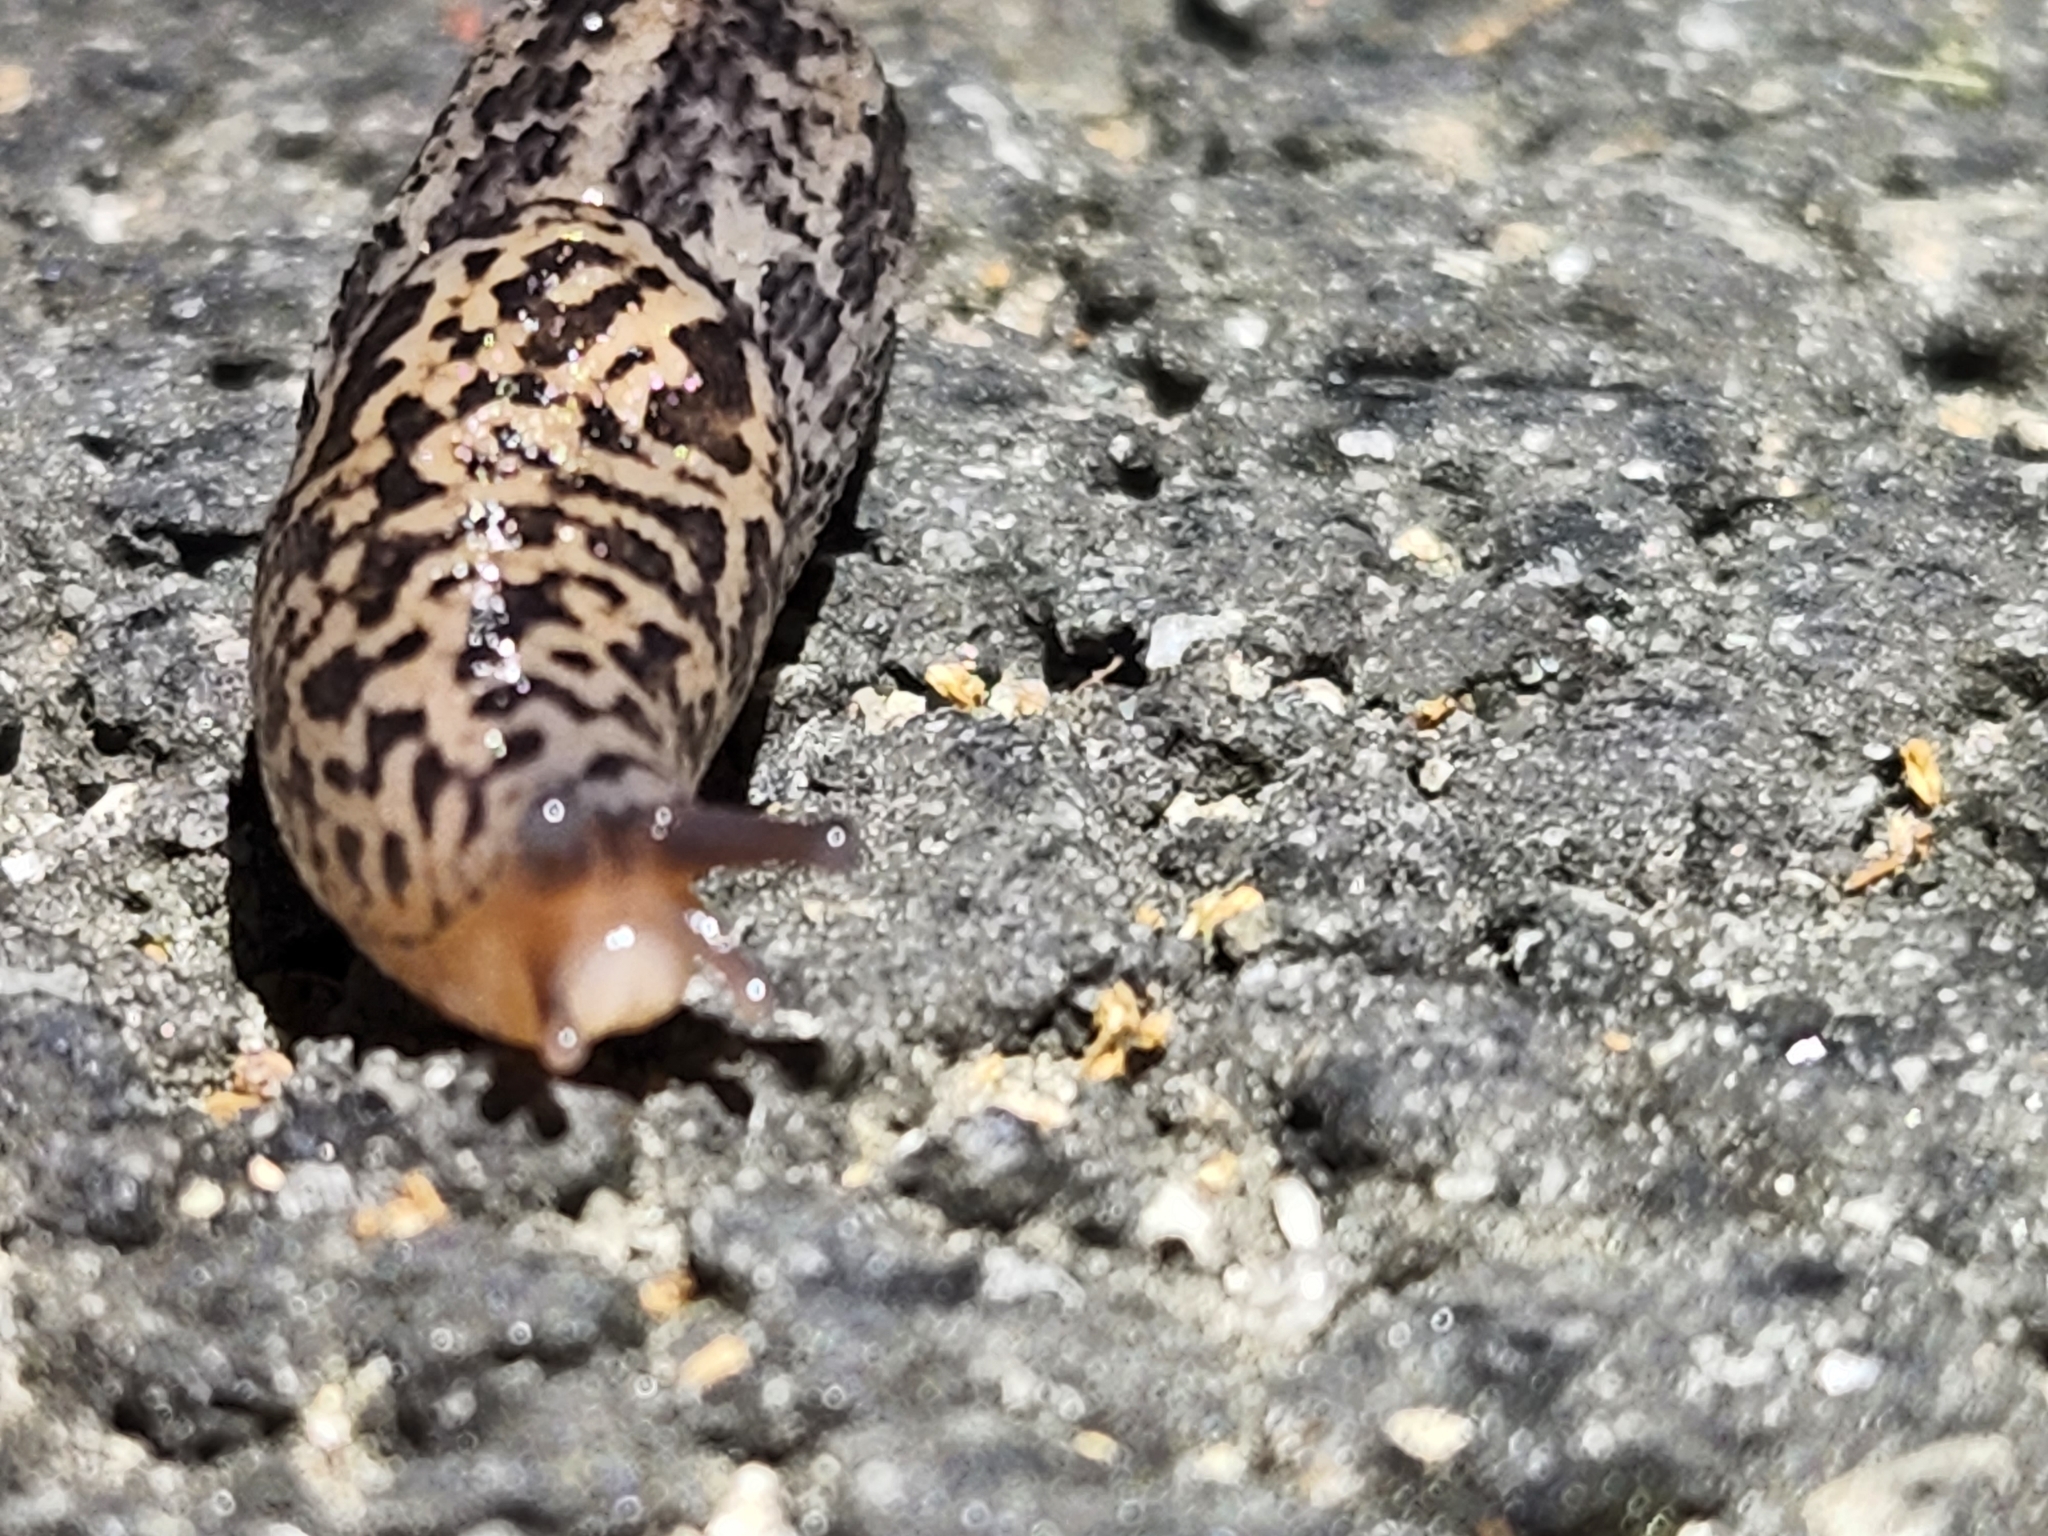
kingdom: Animalia
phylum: Mollusca
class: Gastropoda
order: Stylommatophora
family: Limacidae
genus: Limax
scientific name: Limax maximus
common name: Great grey slug
